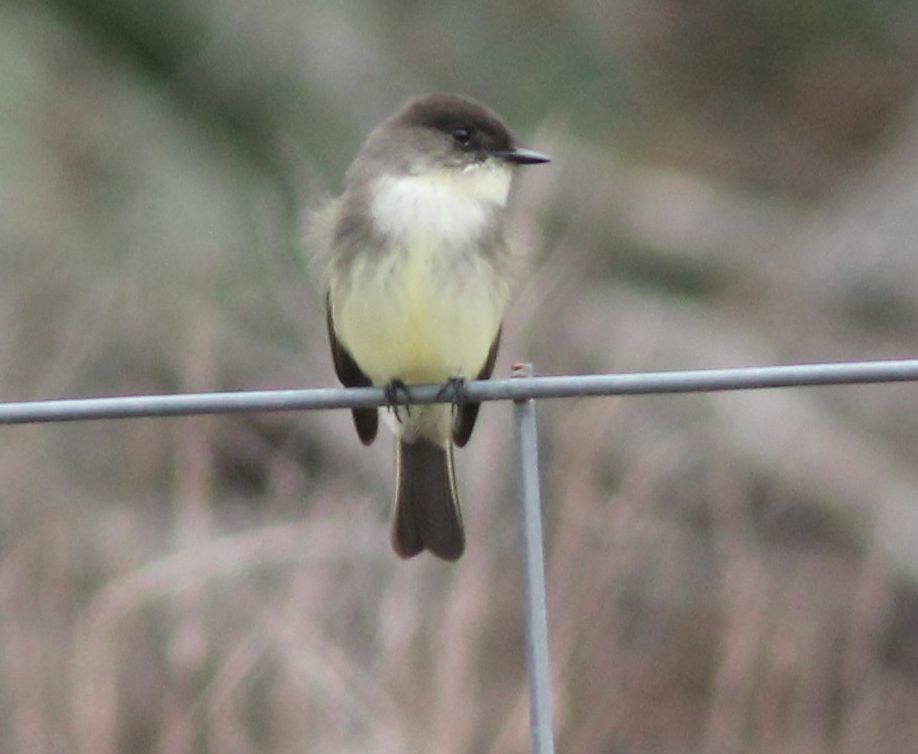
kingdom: Animalia
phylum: Chordata
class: Aves
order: Passeriformes
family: Tyrannidae
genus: Sayornis
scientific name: Sayornis phoebe
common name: Eastern phoebe
